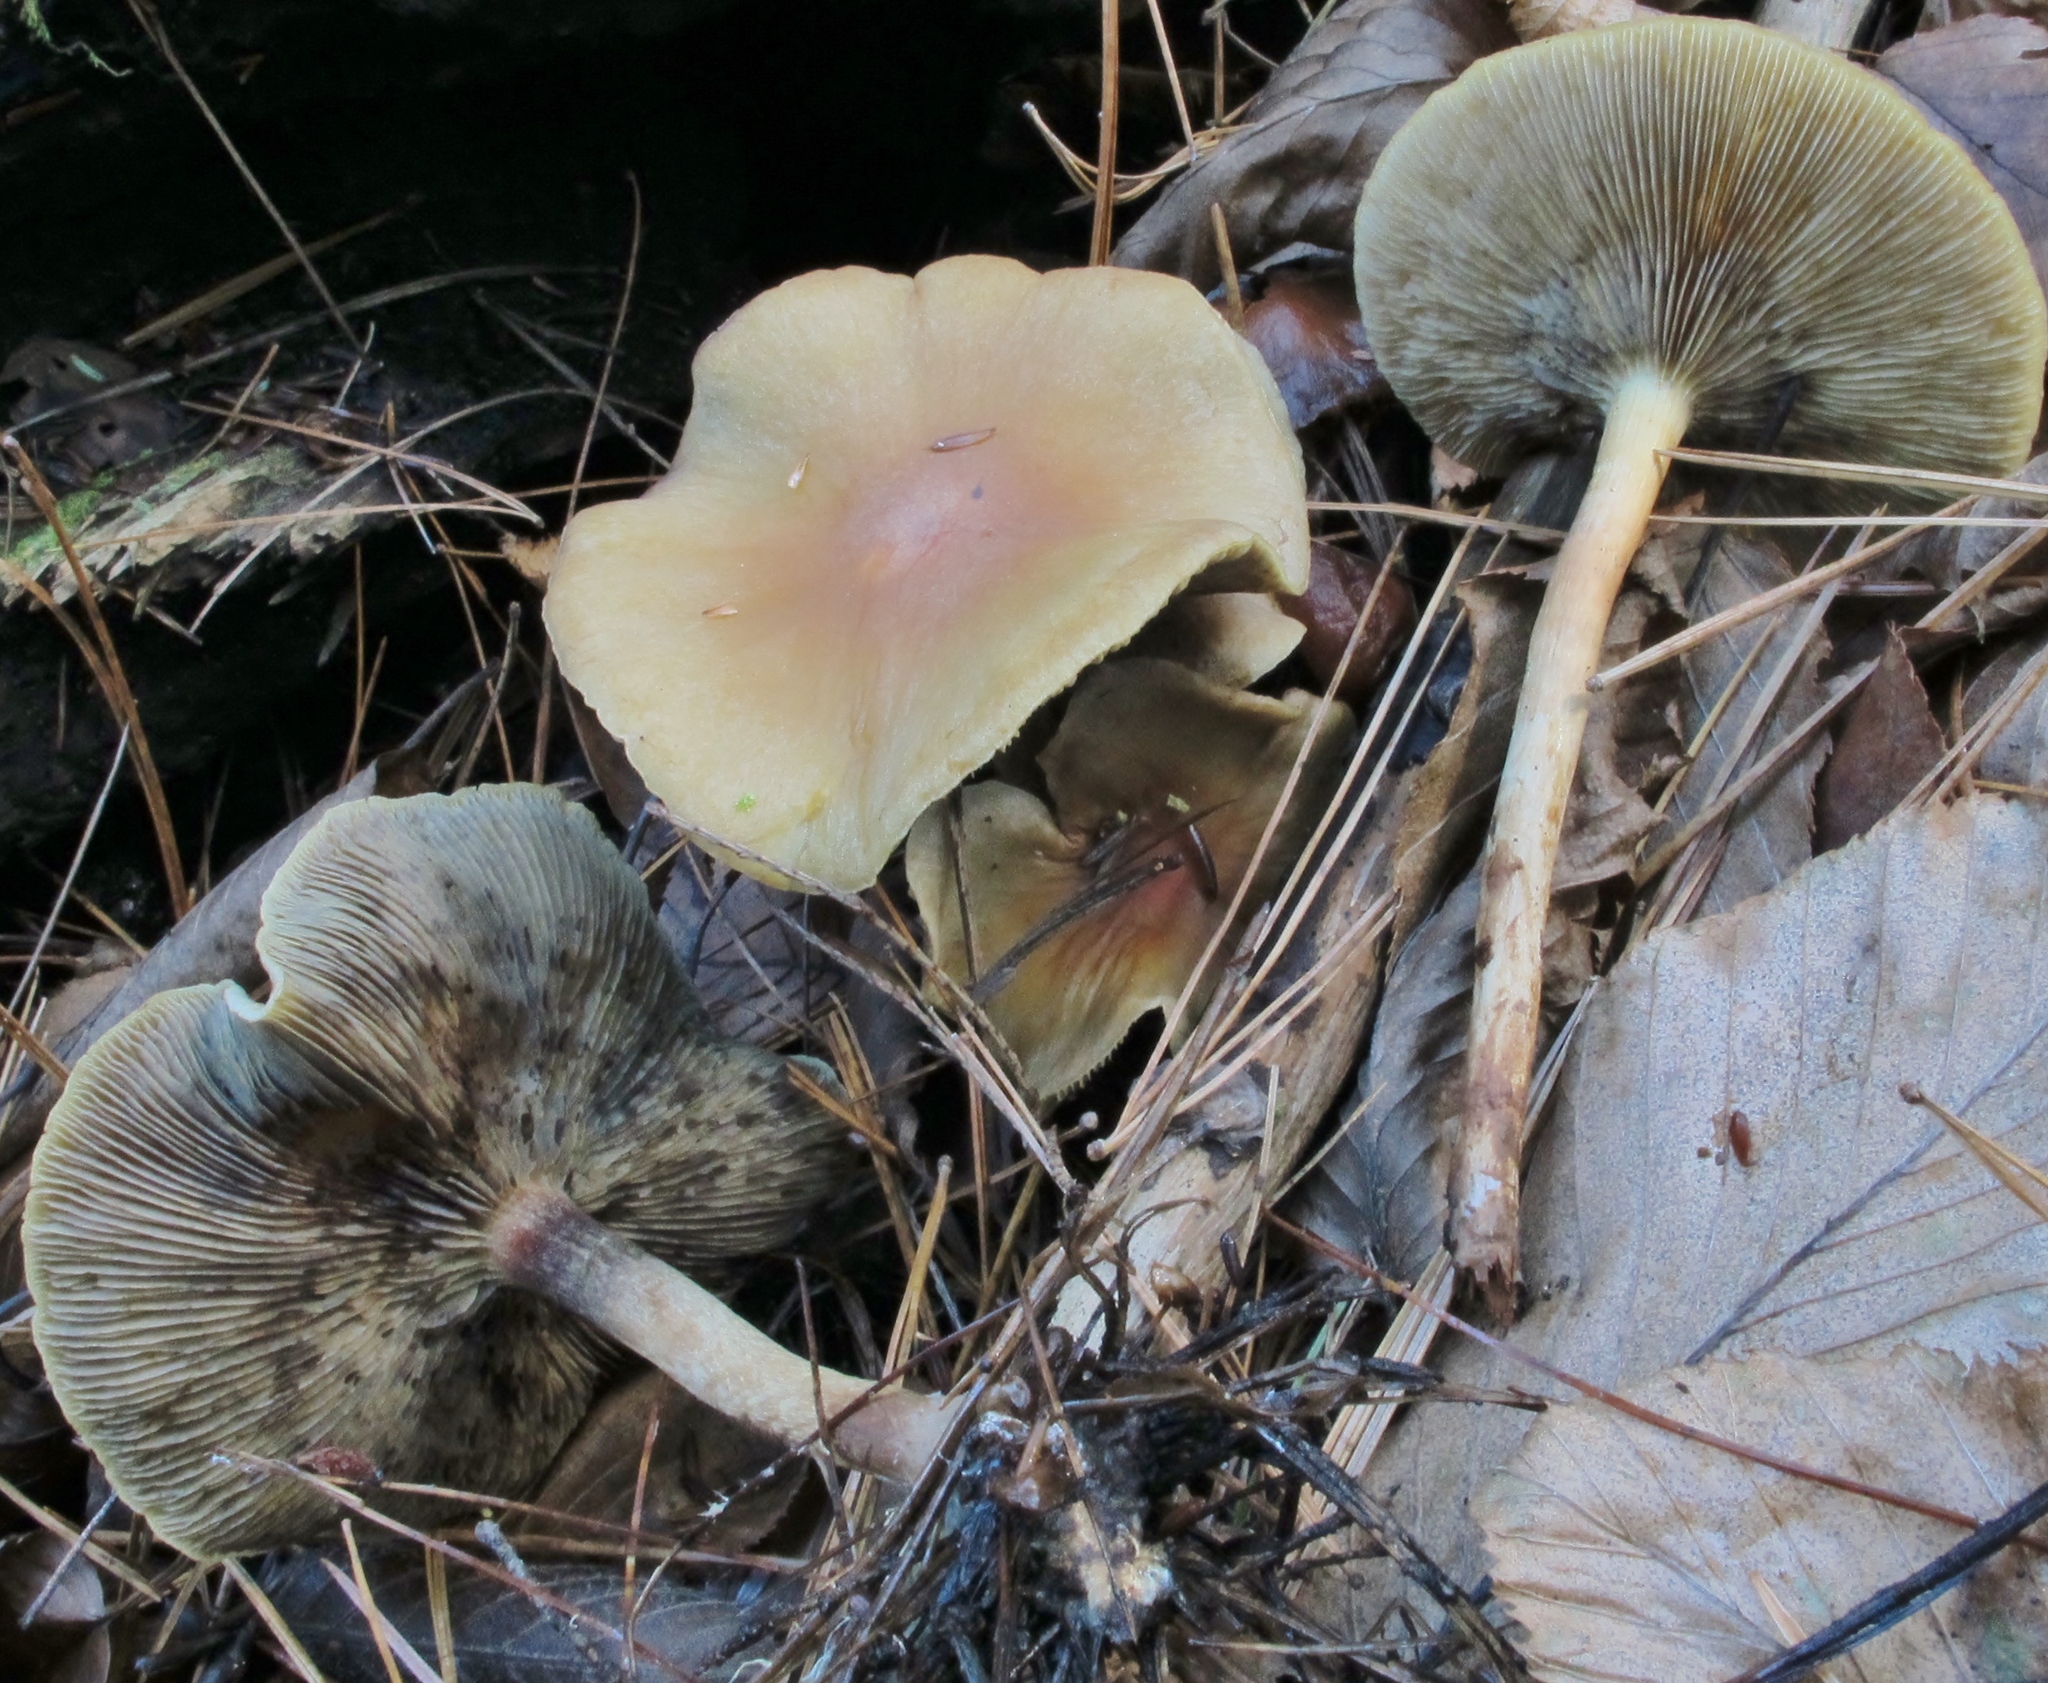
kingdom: Fungi
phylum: Basidiomycota
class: Agaricomycetes
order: Agaricales
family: Strophariaceae
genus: Hypholoma
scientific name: Hypholoma capnoides
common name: Conifer tuft
